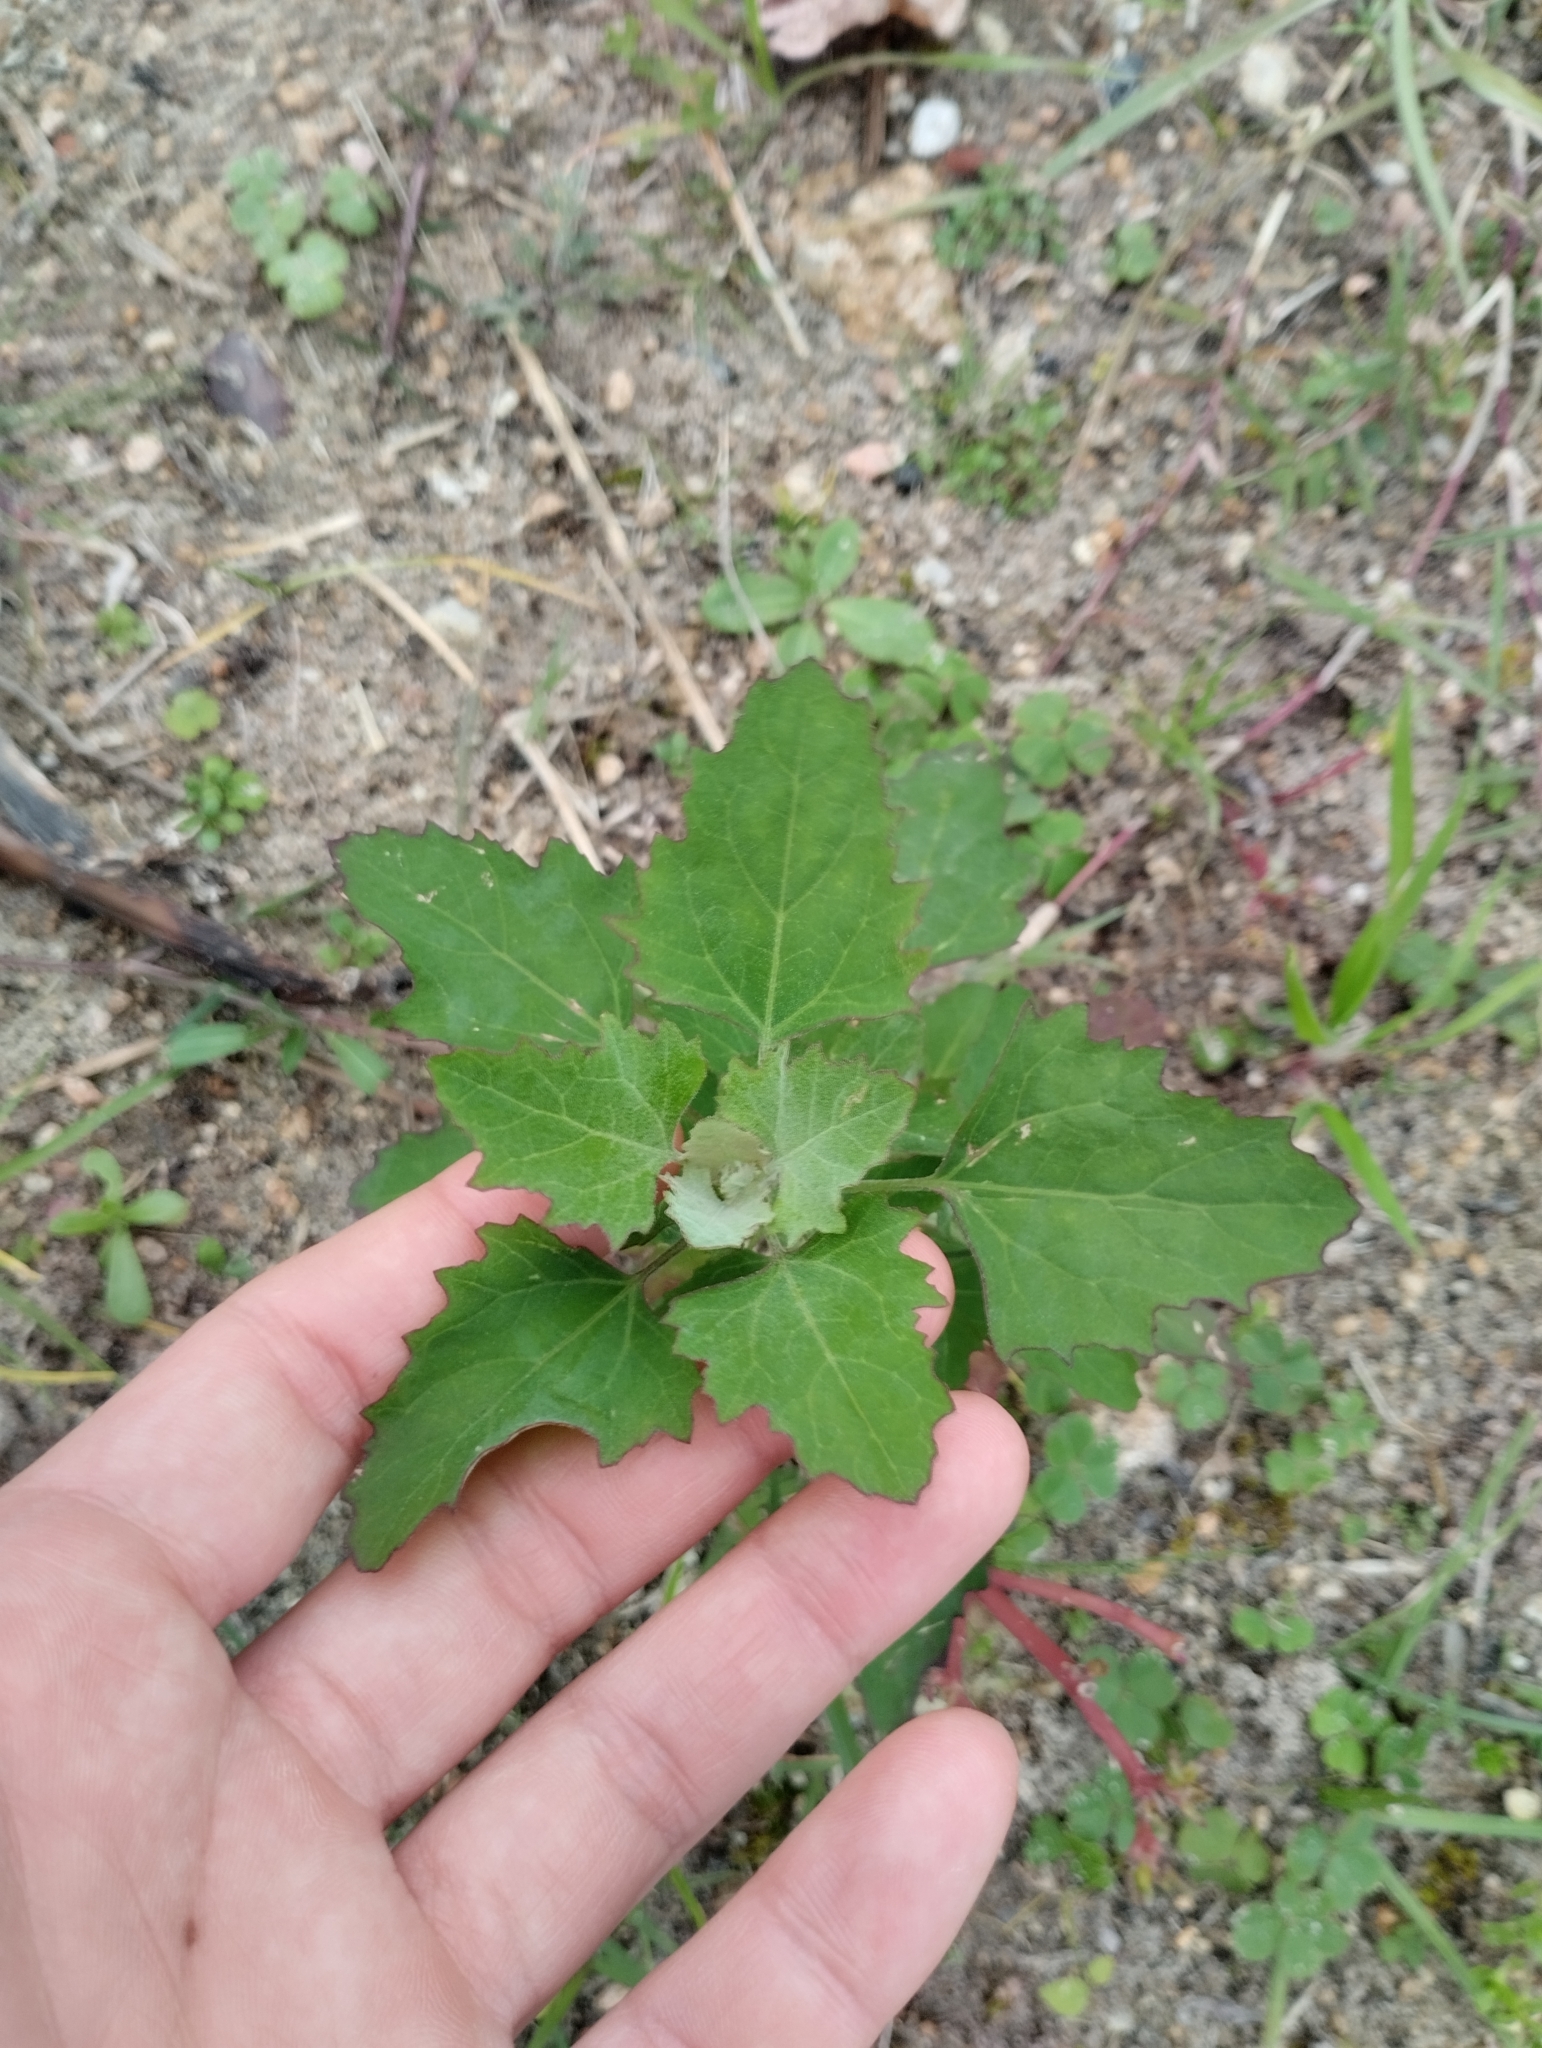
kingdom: Plantae
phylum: Tracheophyta
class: Magnoliopsida
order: Caryophyllales
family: Amaranthaceae
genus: Chenopodium
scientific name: Chenopodium album
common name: Fat-hen
